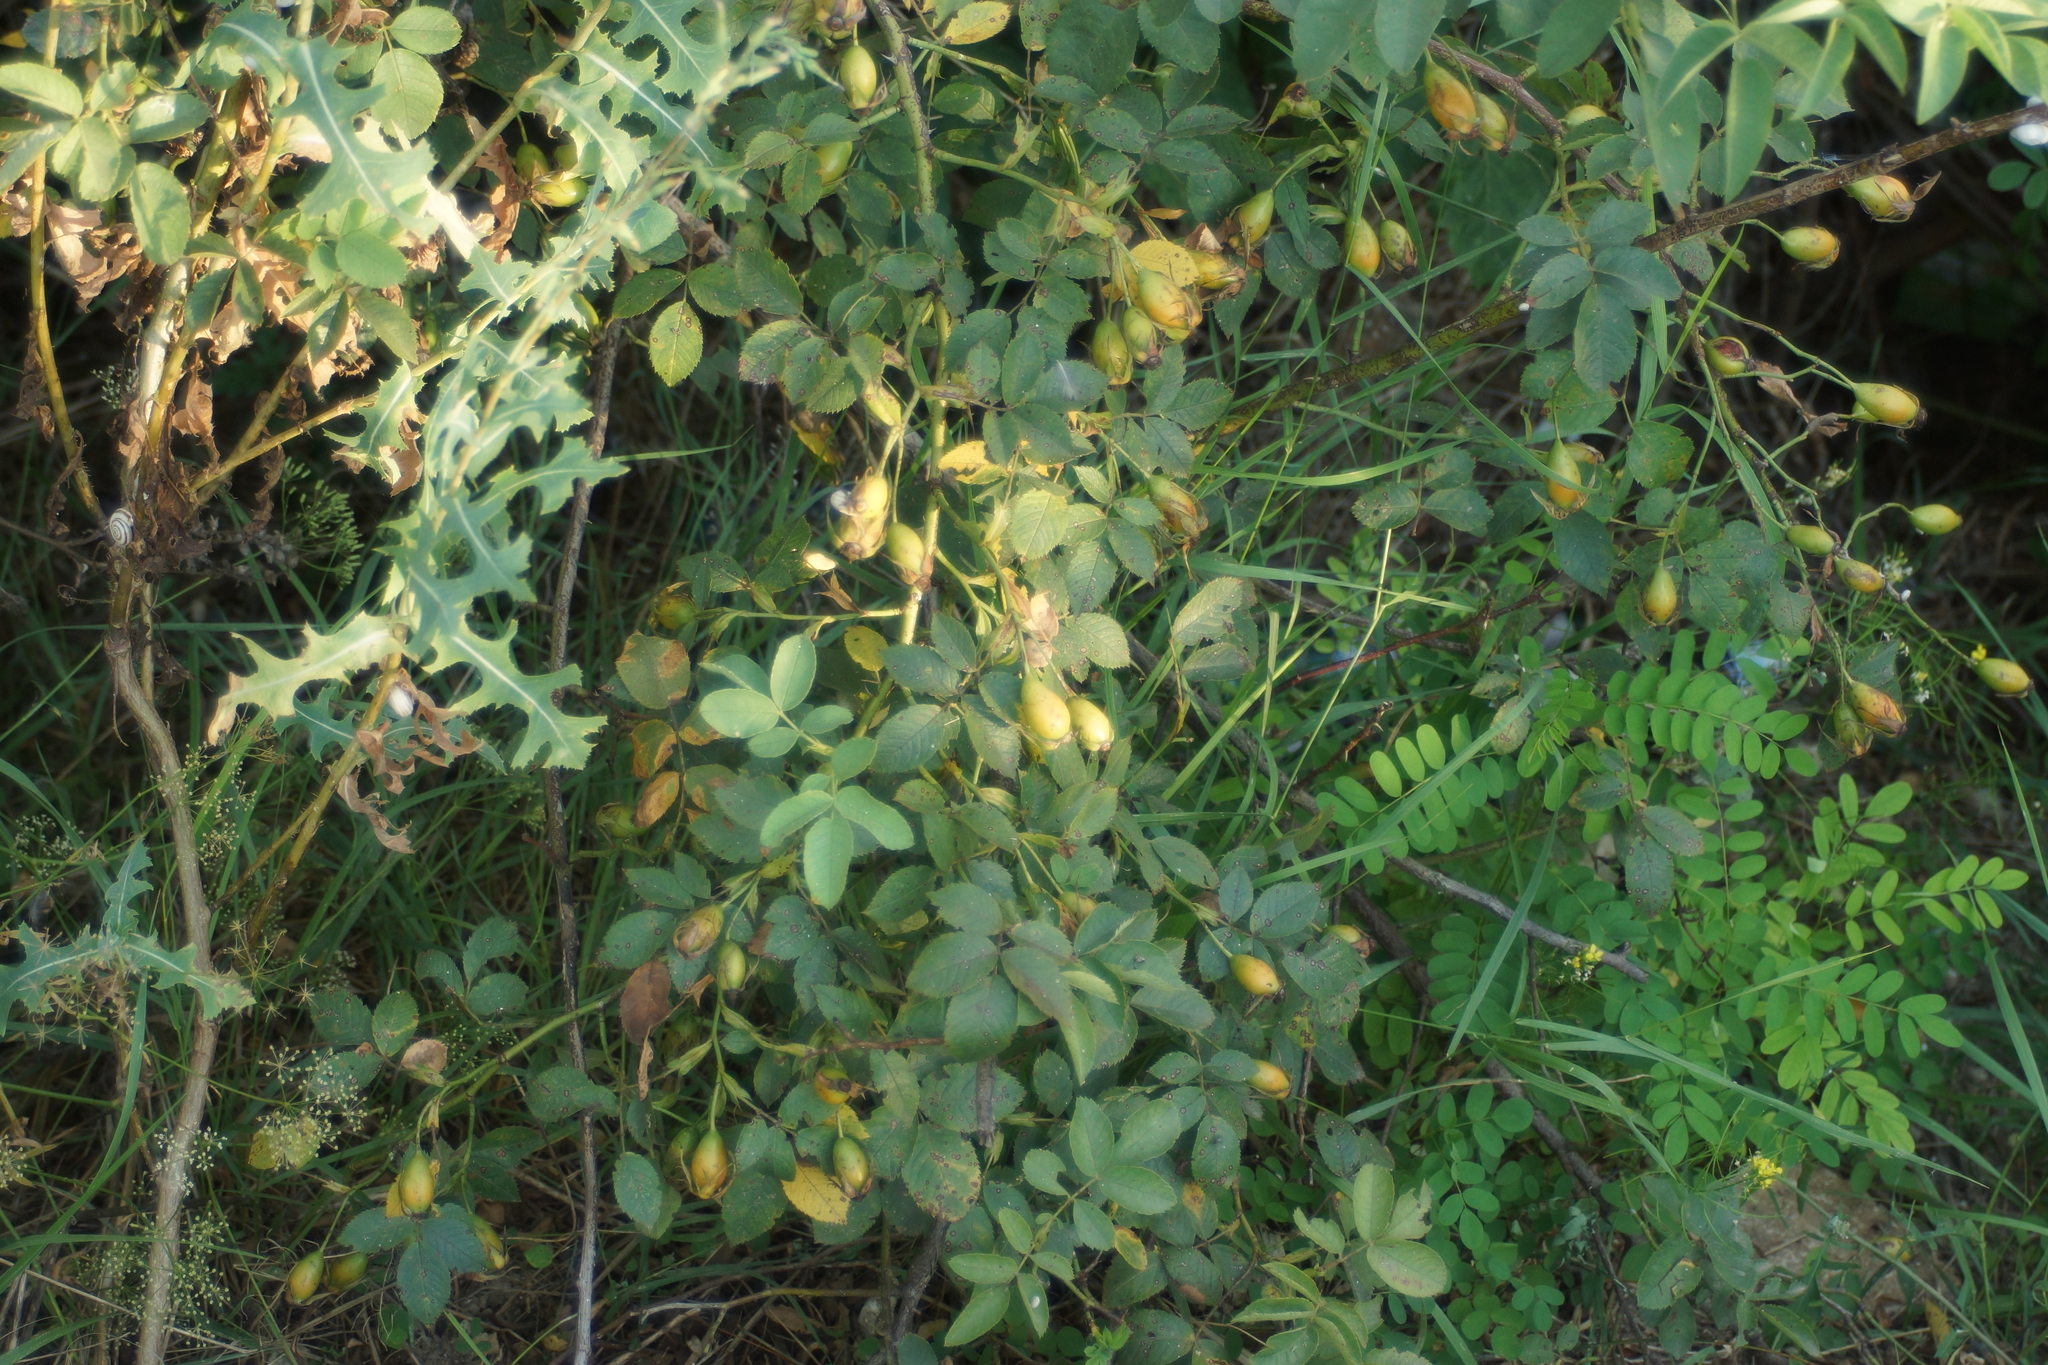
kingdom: Plantae
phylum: Tracheophyta
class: Magnoliopsida
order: Rosales
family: Rosaceae
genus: Rosa
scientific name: Rosa canina
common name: Dog rose
